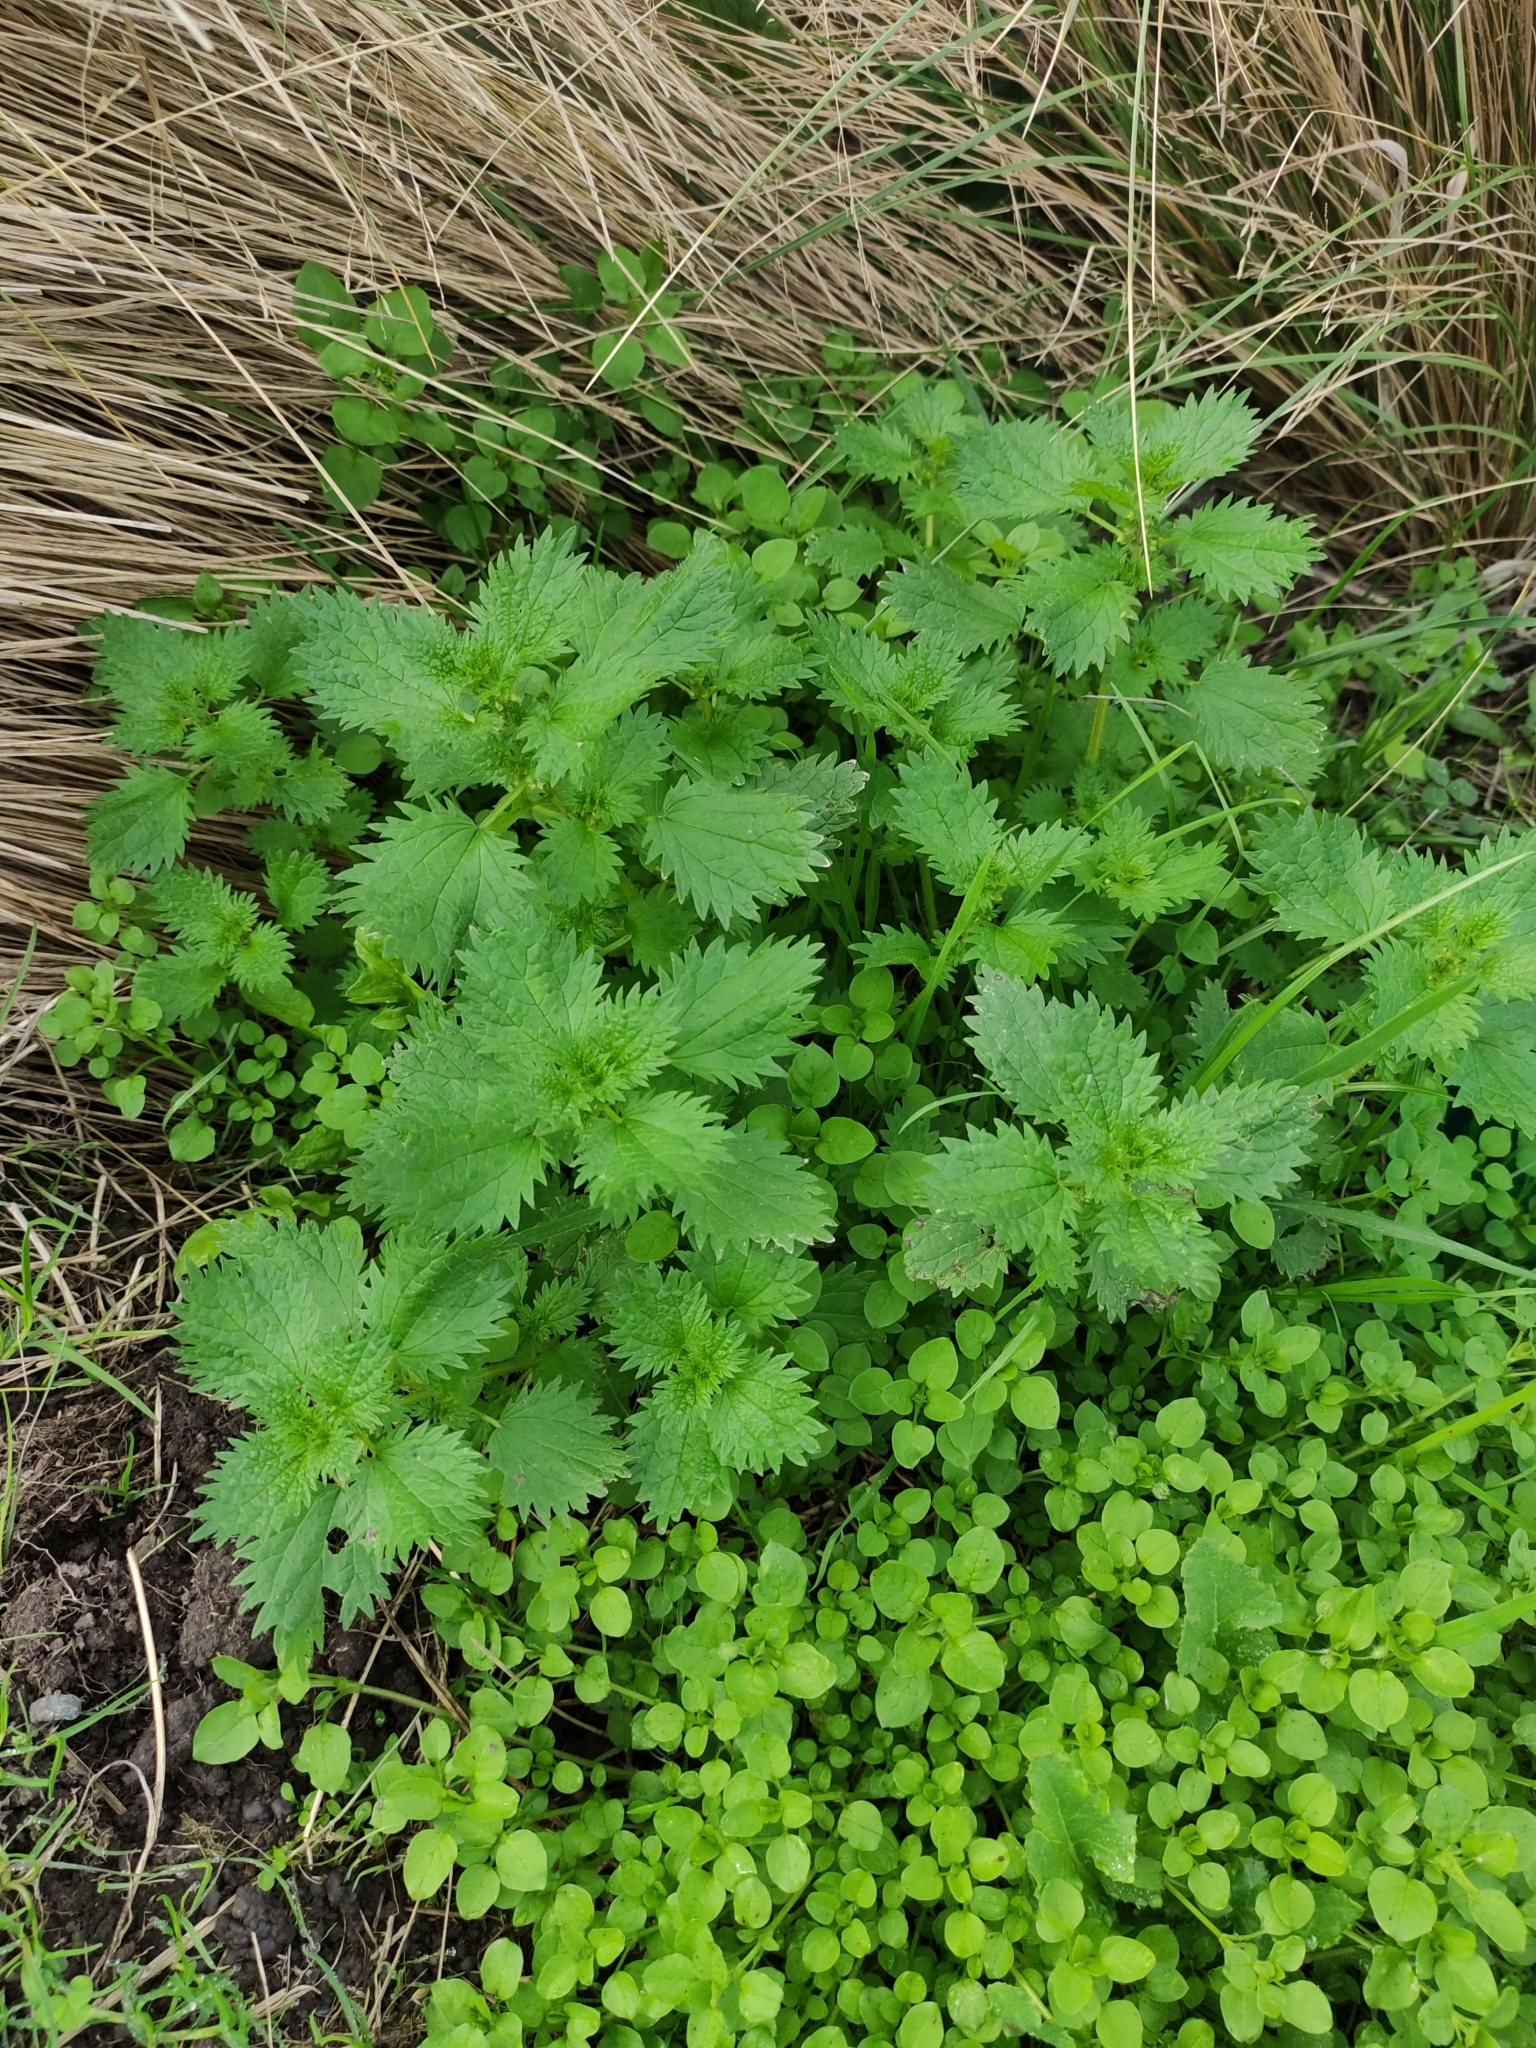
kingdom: Plantae
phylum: Tracheophyta
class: Magnoliopsida
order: Rosales
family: Urticaceae
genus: Urtica
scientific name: Urtica urens
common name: Dwarf nettle
